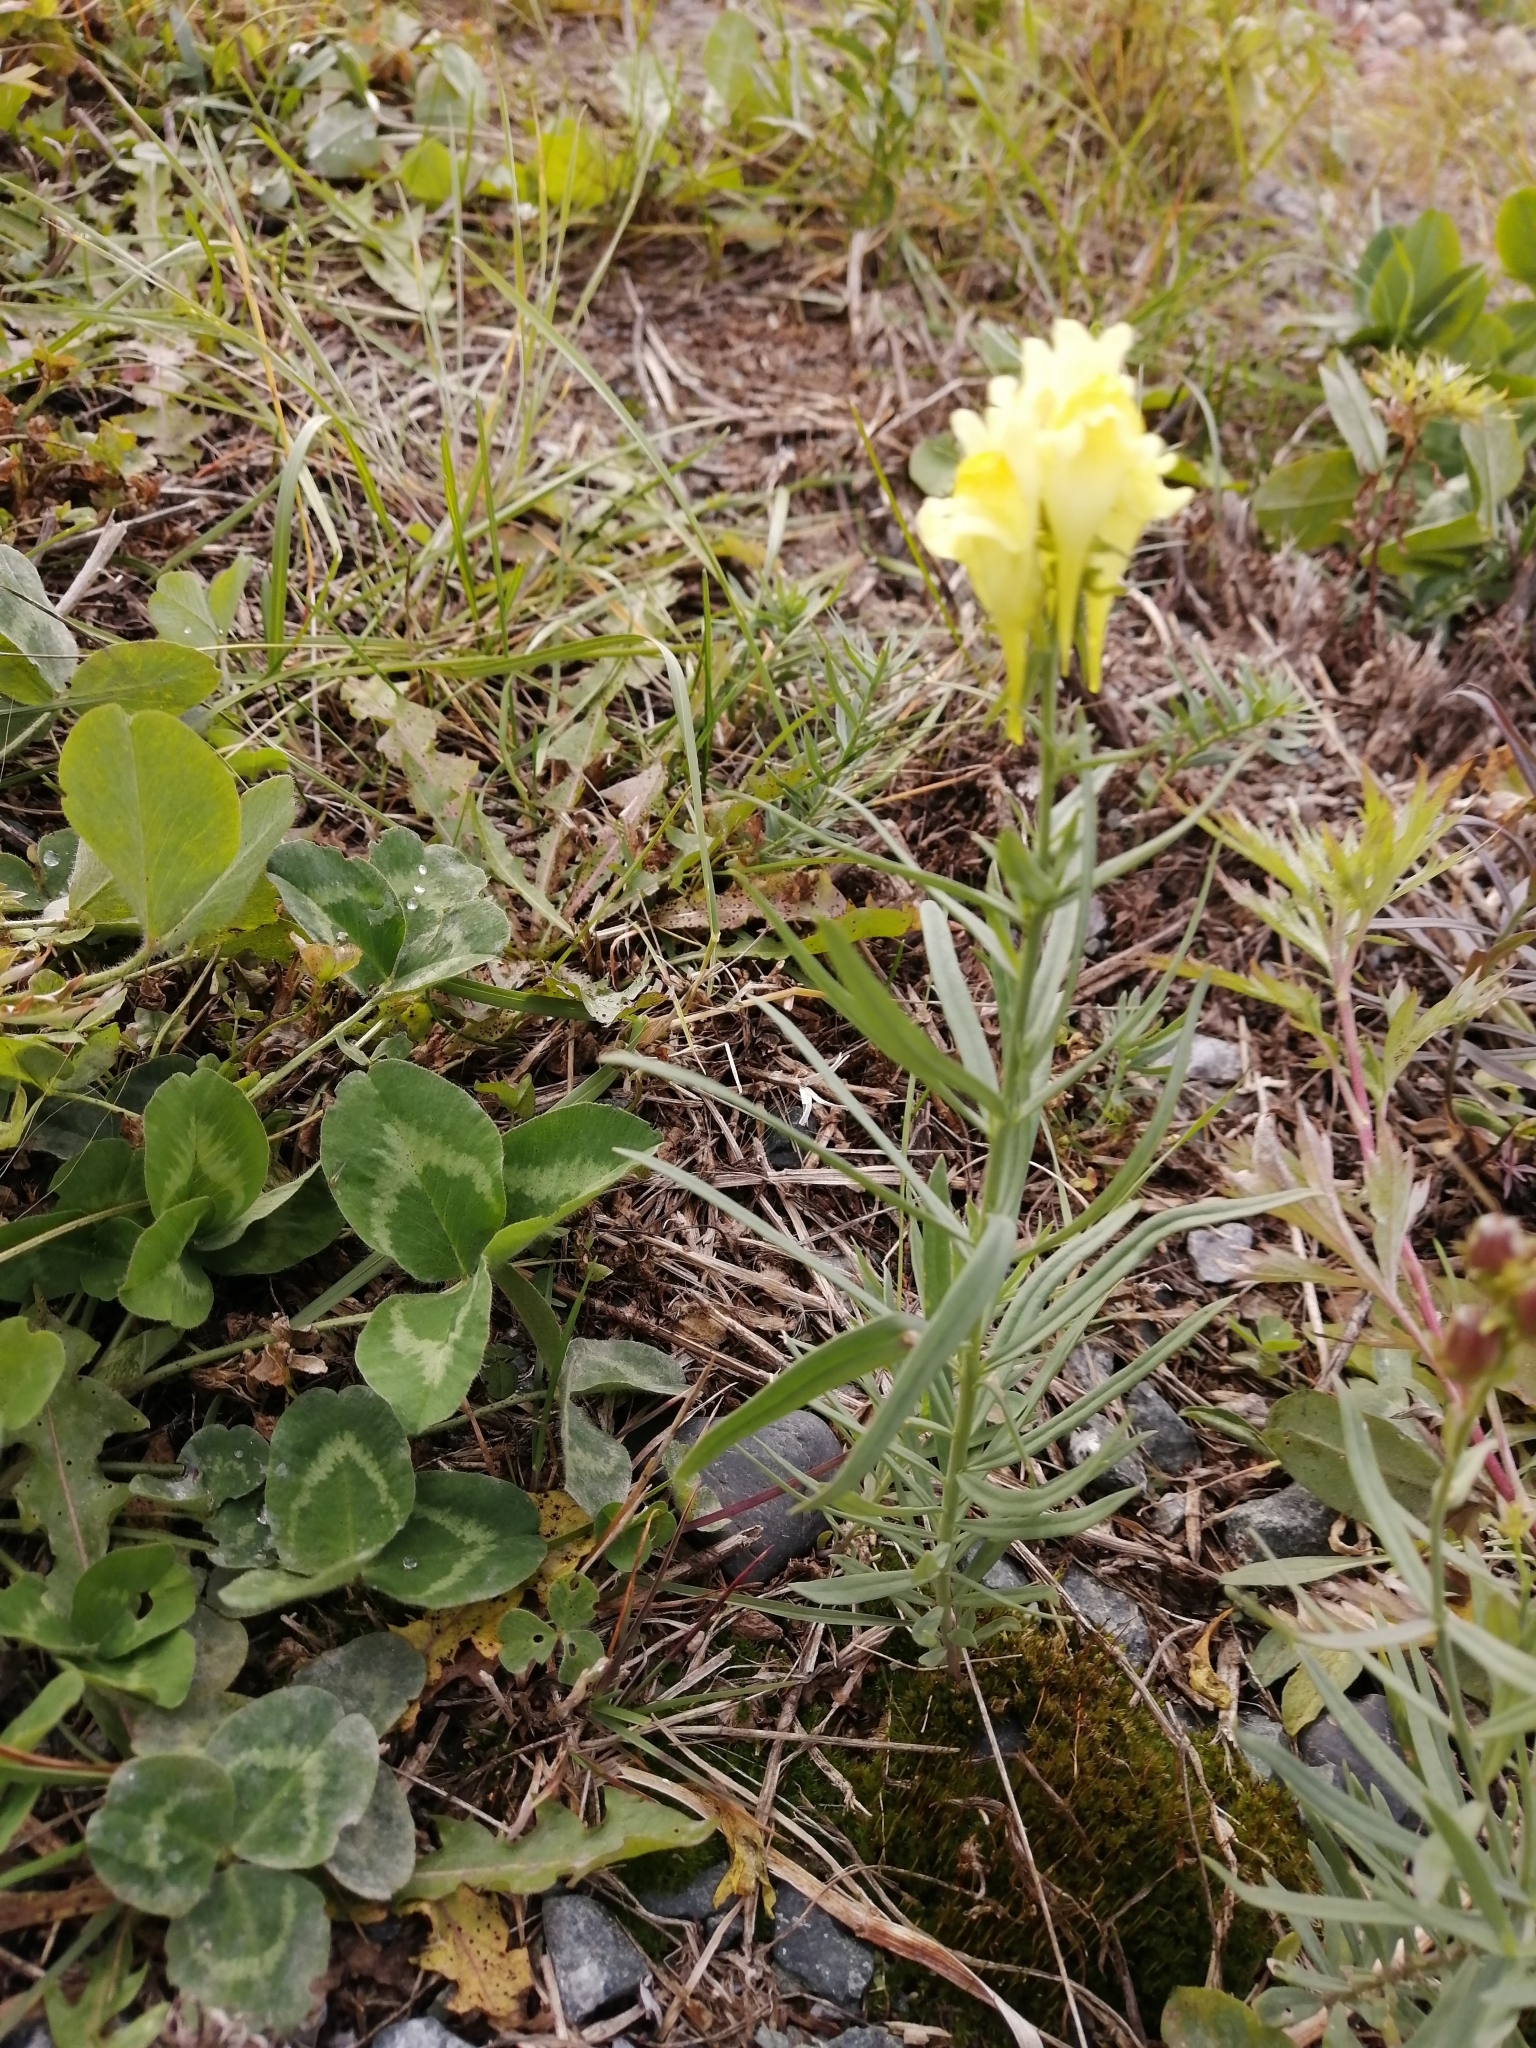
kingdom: Plantae
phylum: Tracheophyta
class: Magnoliopsida
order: Lamiales
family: Plantaginaceae
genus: Linaria
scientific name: Linaria vulgaris
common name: Butter and eggs
